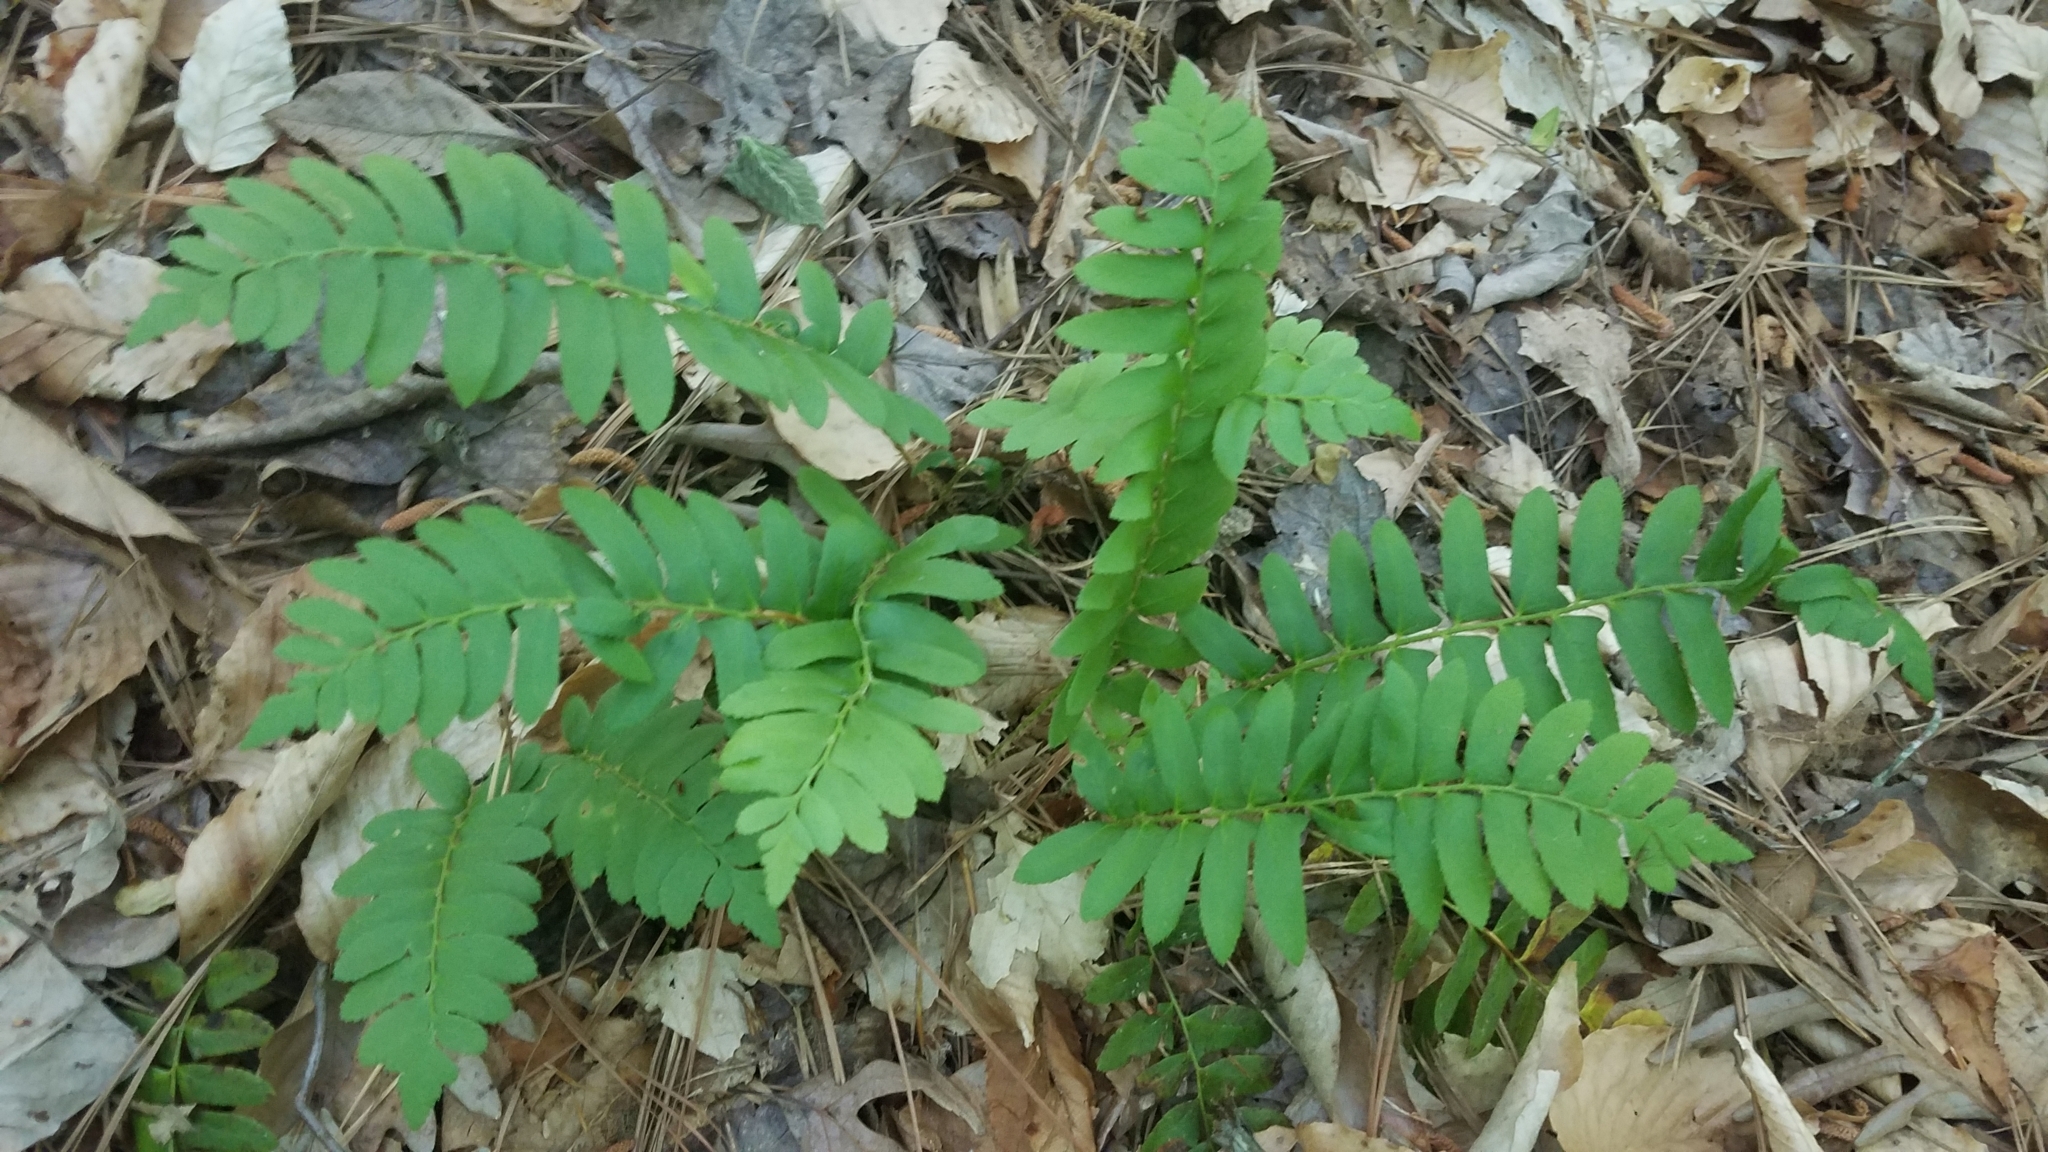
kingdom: Plantae
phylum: Tracheophyta
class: Polypodiopsida
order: Polypodiales
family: Dryopteridaceae
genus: Polystichum
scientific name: Polystichum acrostichoides
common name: Christmas fern
